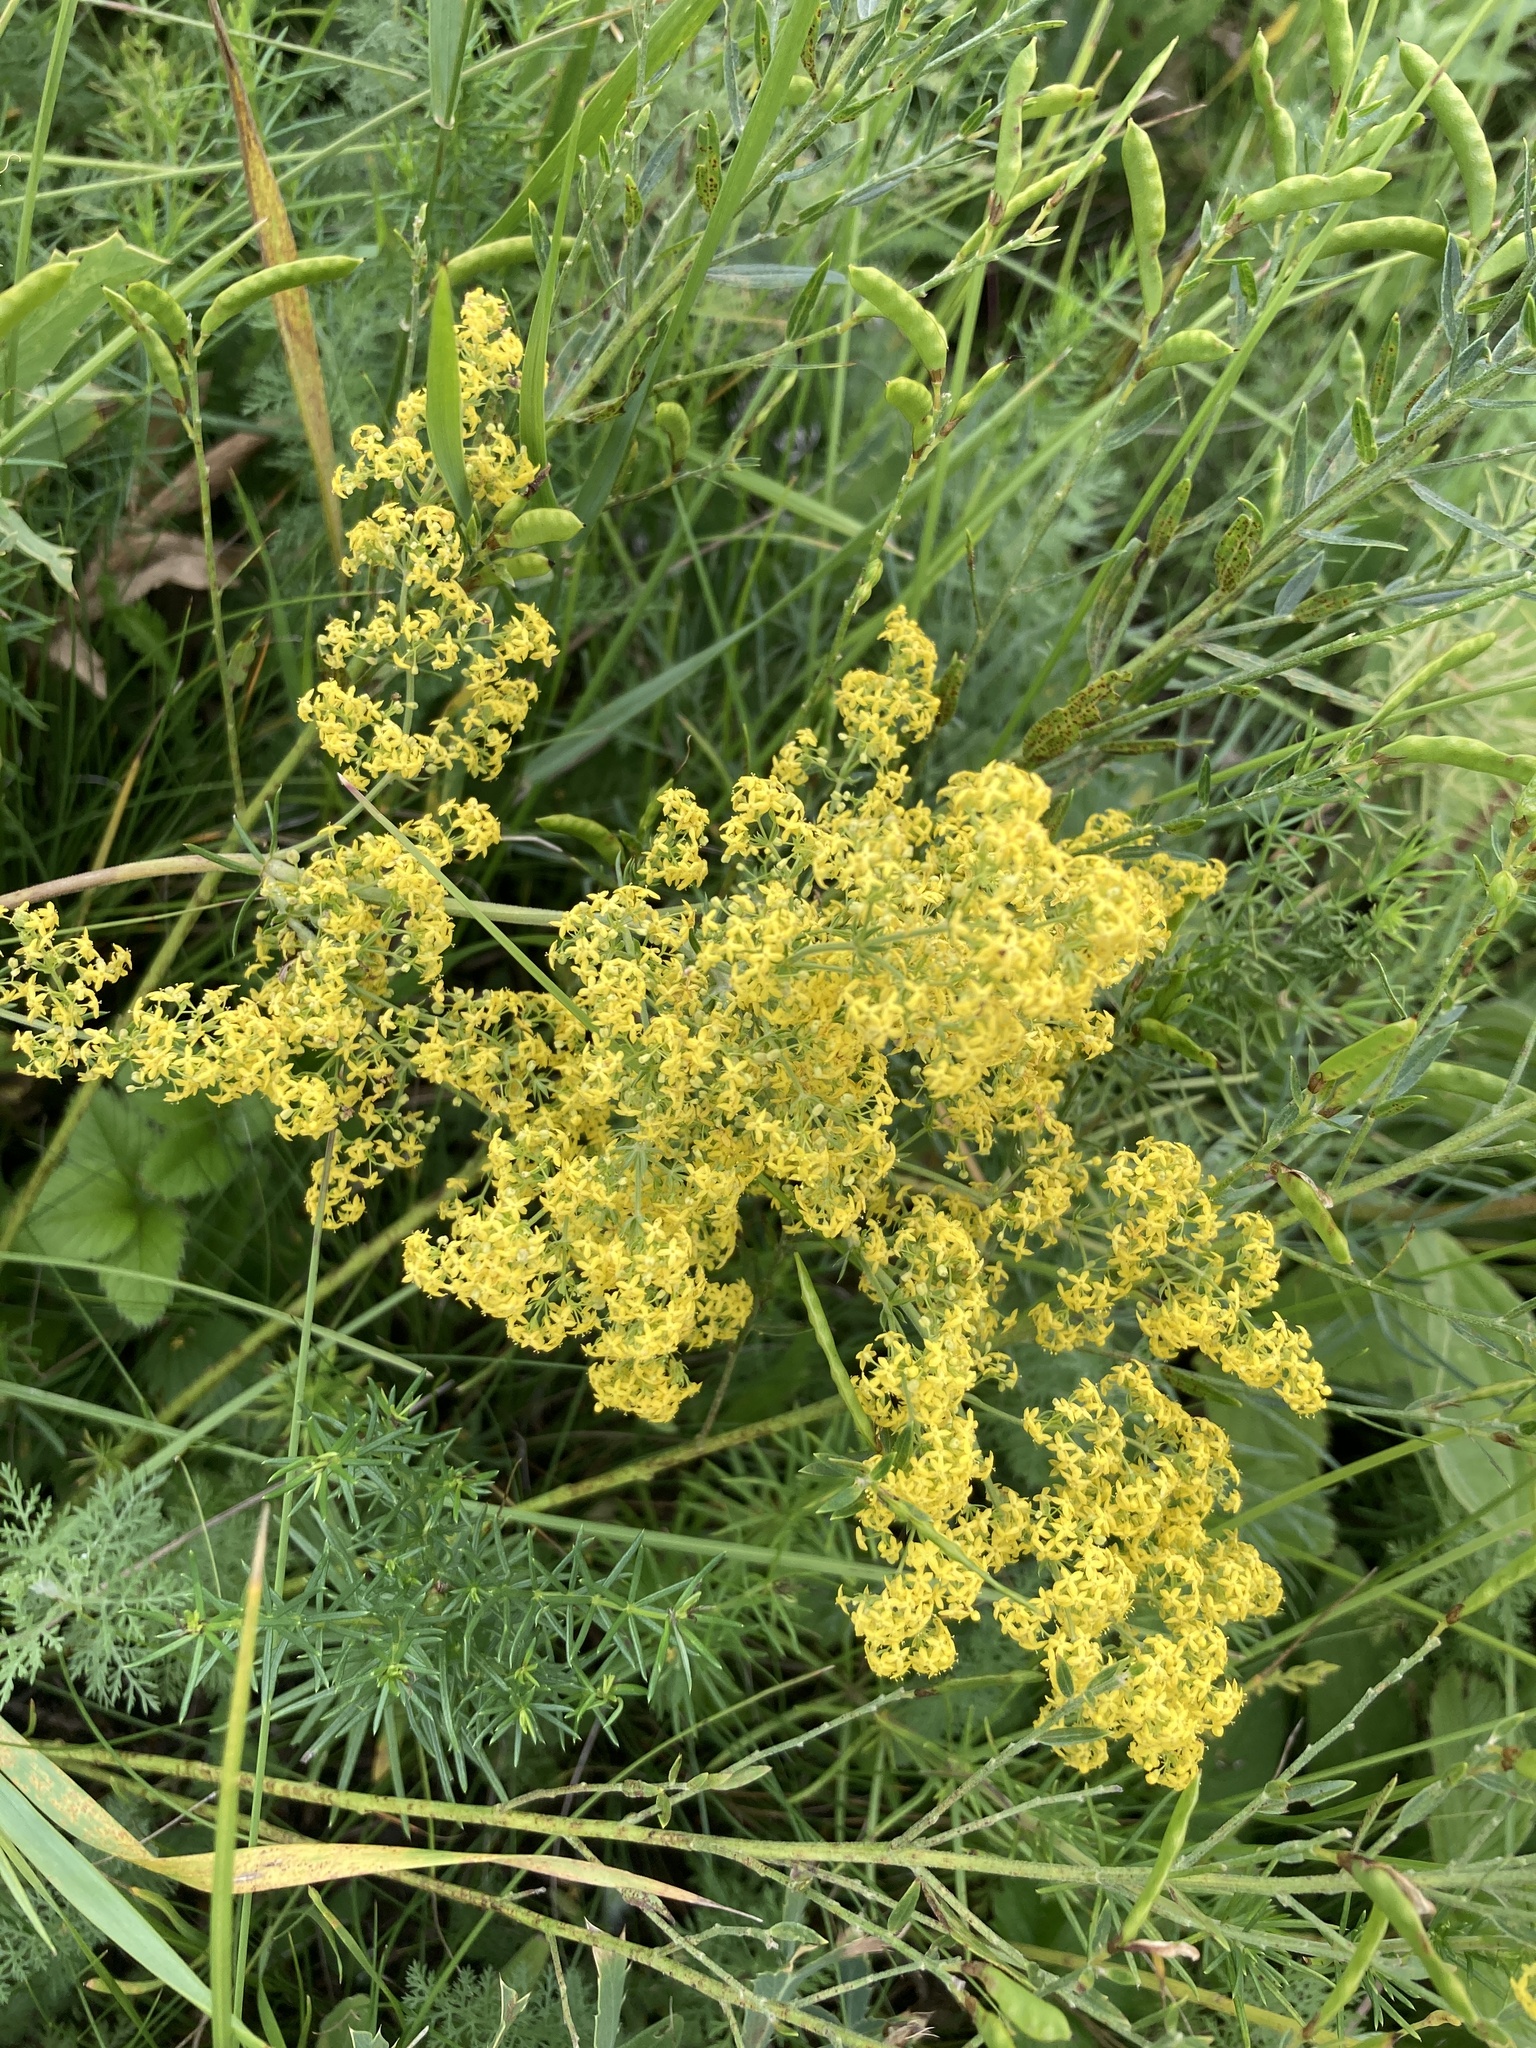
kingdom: Plantae
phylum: Tracheophyta
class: Magnoliopsida
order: Gentianales
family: Rubiaceae
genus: Galium
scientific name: Galium verum
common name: Lady's bedstraw
